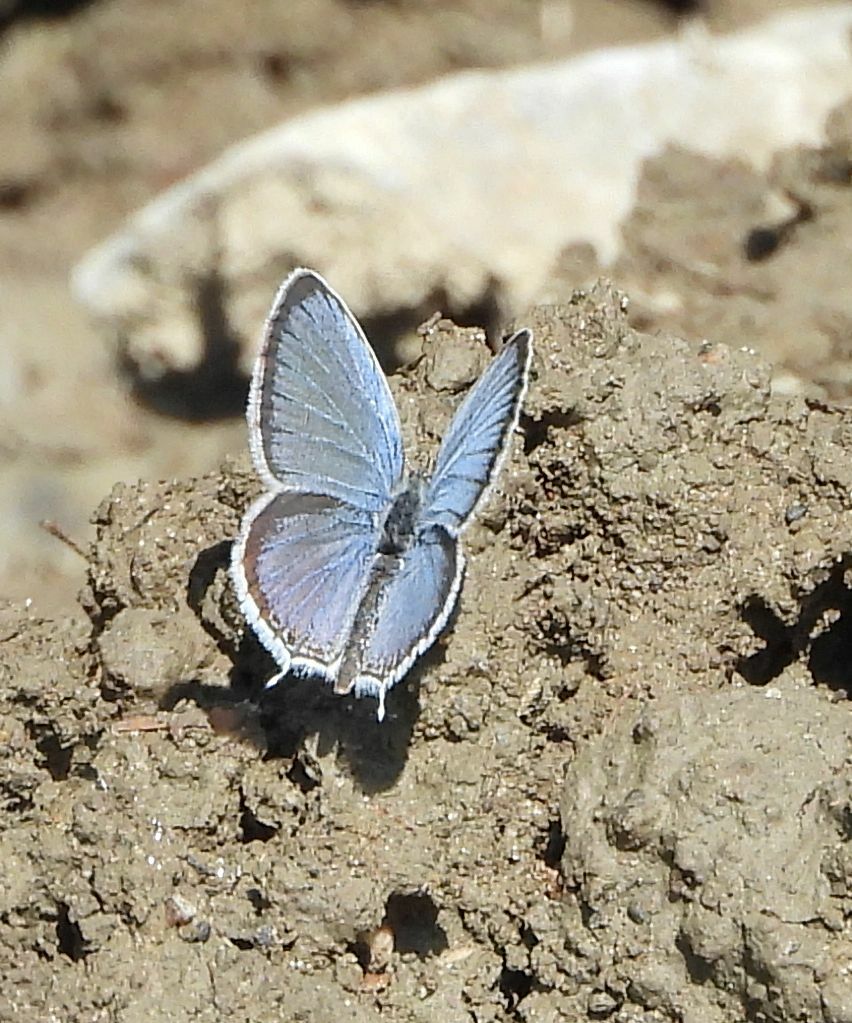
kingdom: Animalia
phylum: Arthropoda
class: Insecta
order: Lepidoptera
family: Lycaenidae
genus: Elkalyce
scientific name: Elkalyce comyntas
